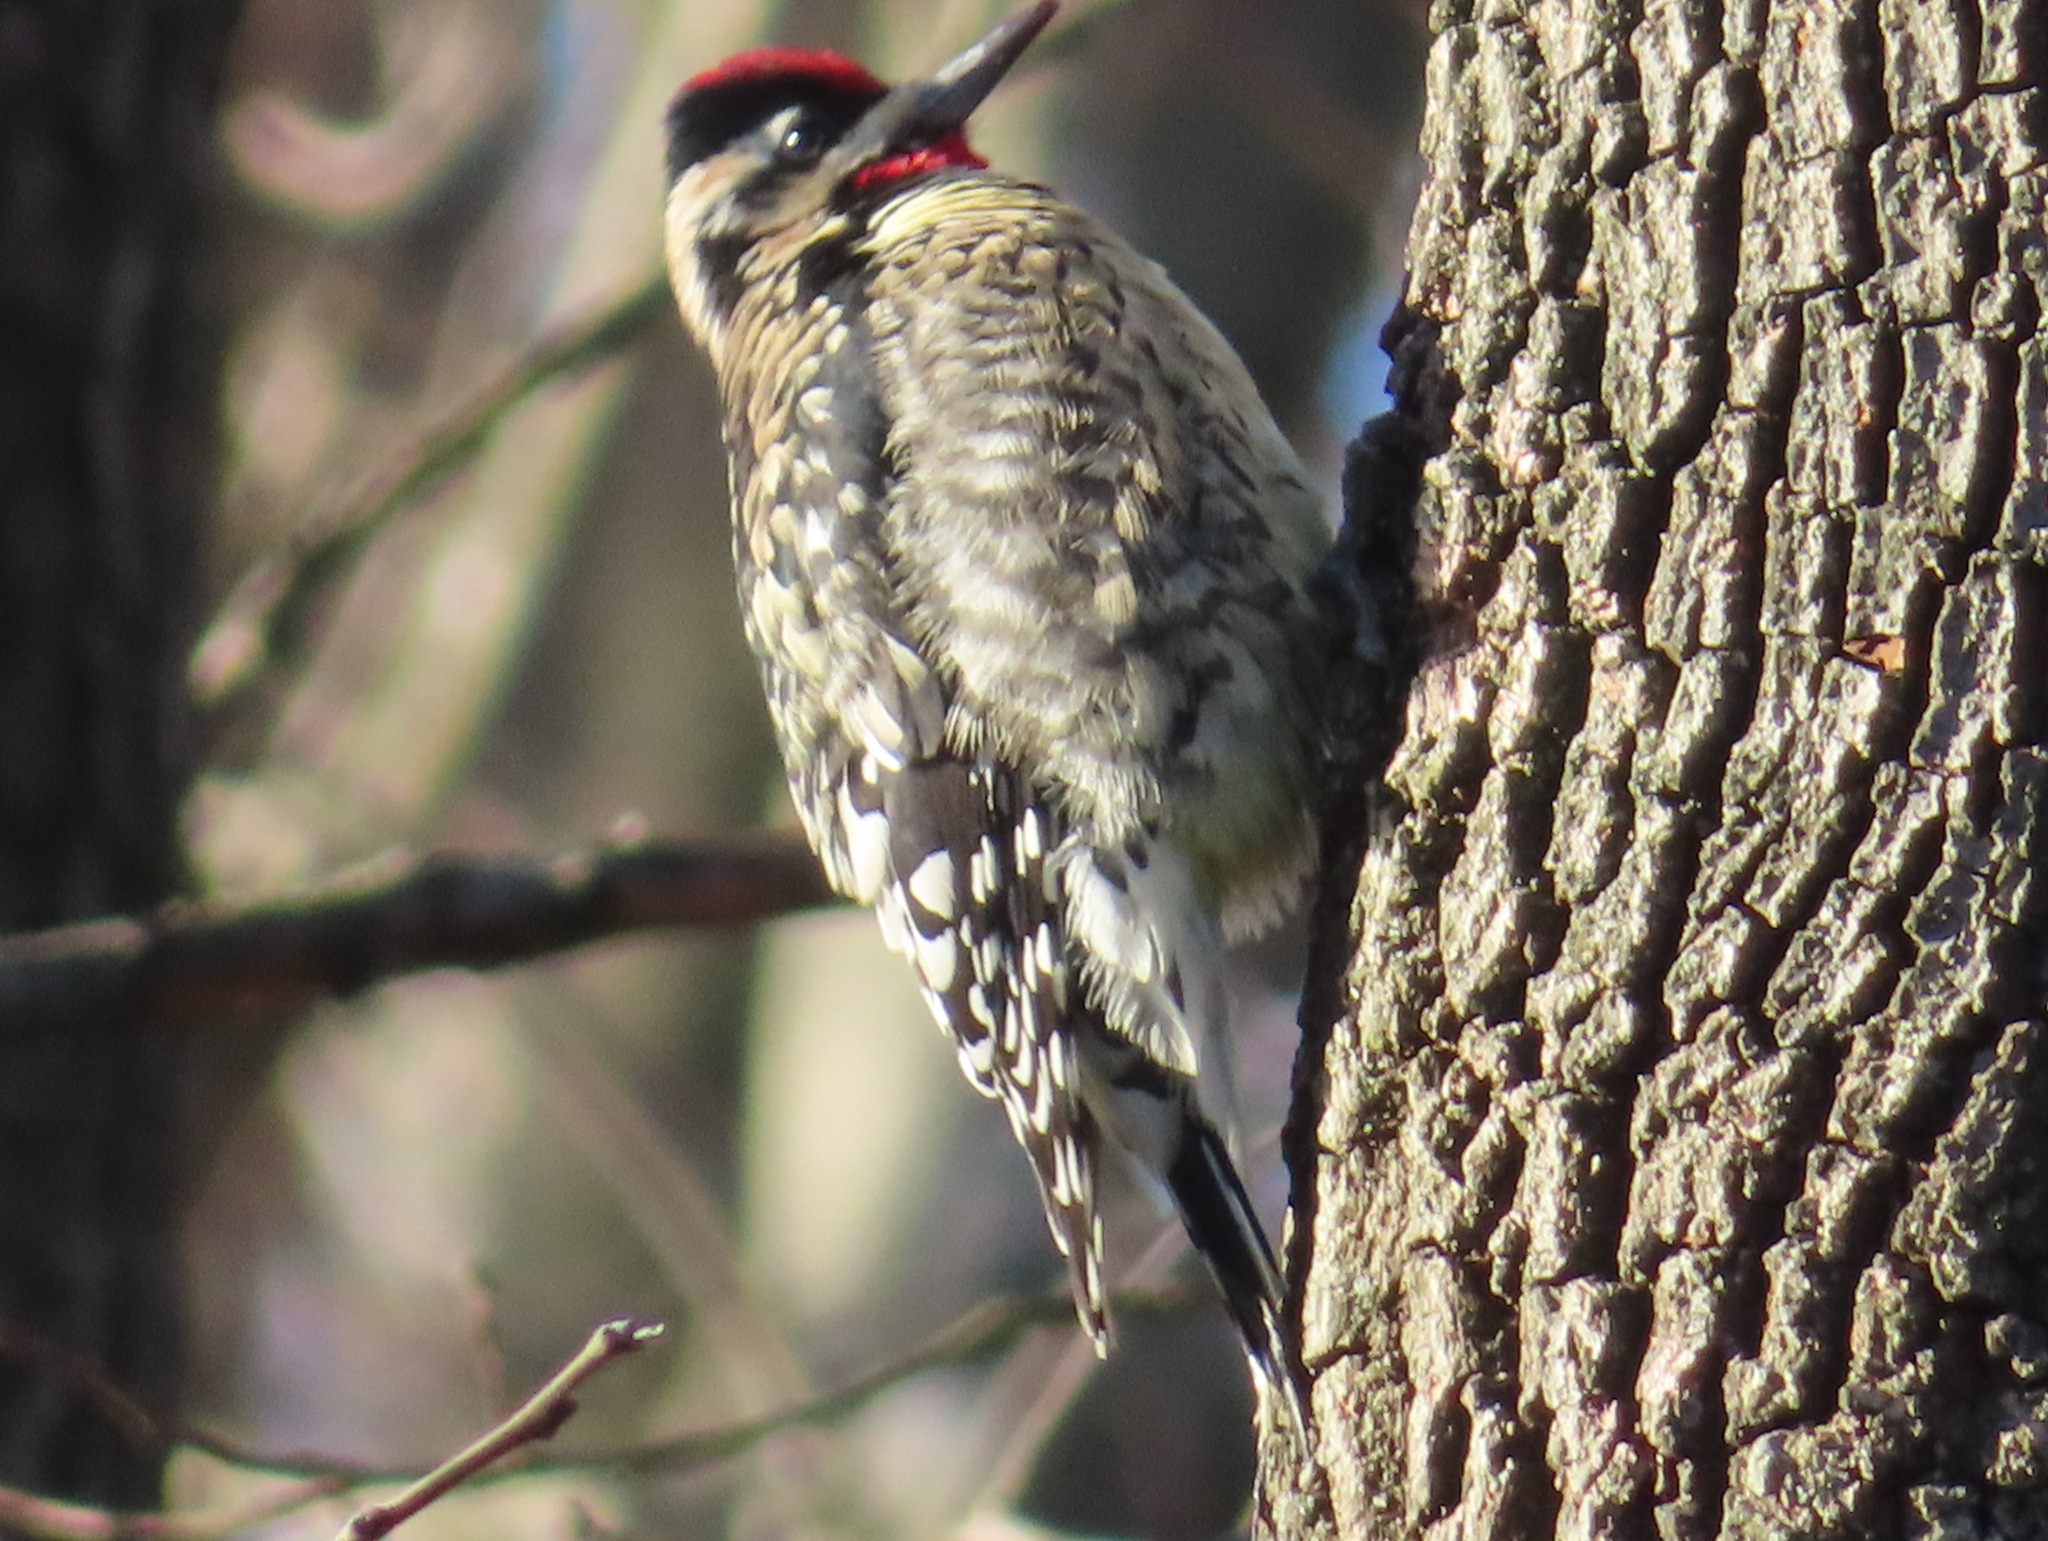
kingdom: Animalia
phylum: Chordata
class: Aves
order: Piciformes
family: Picidae
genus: Sphyrapicus
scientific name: Sphyrapicus varius
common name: Yellow-bellied sapsucker
